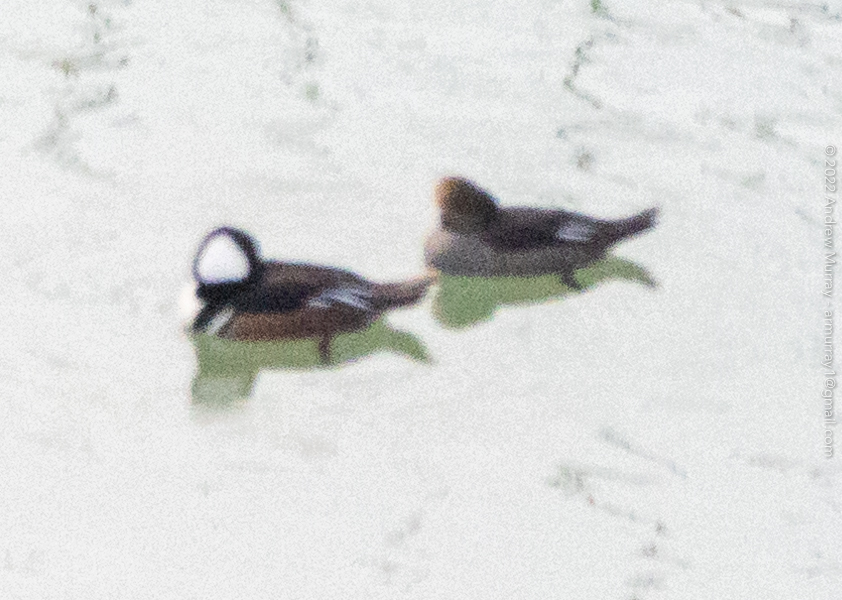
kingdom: Animalia
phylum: Chordata
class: Aves
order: Anseriformes
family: Anatidae
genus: Lophodytes
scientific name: Lophodytes cucullatus
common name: Hooded merganser
